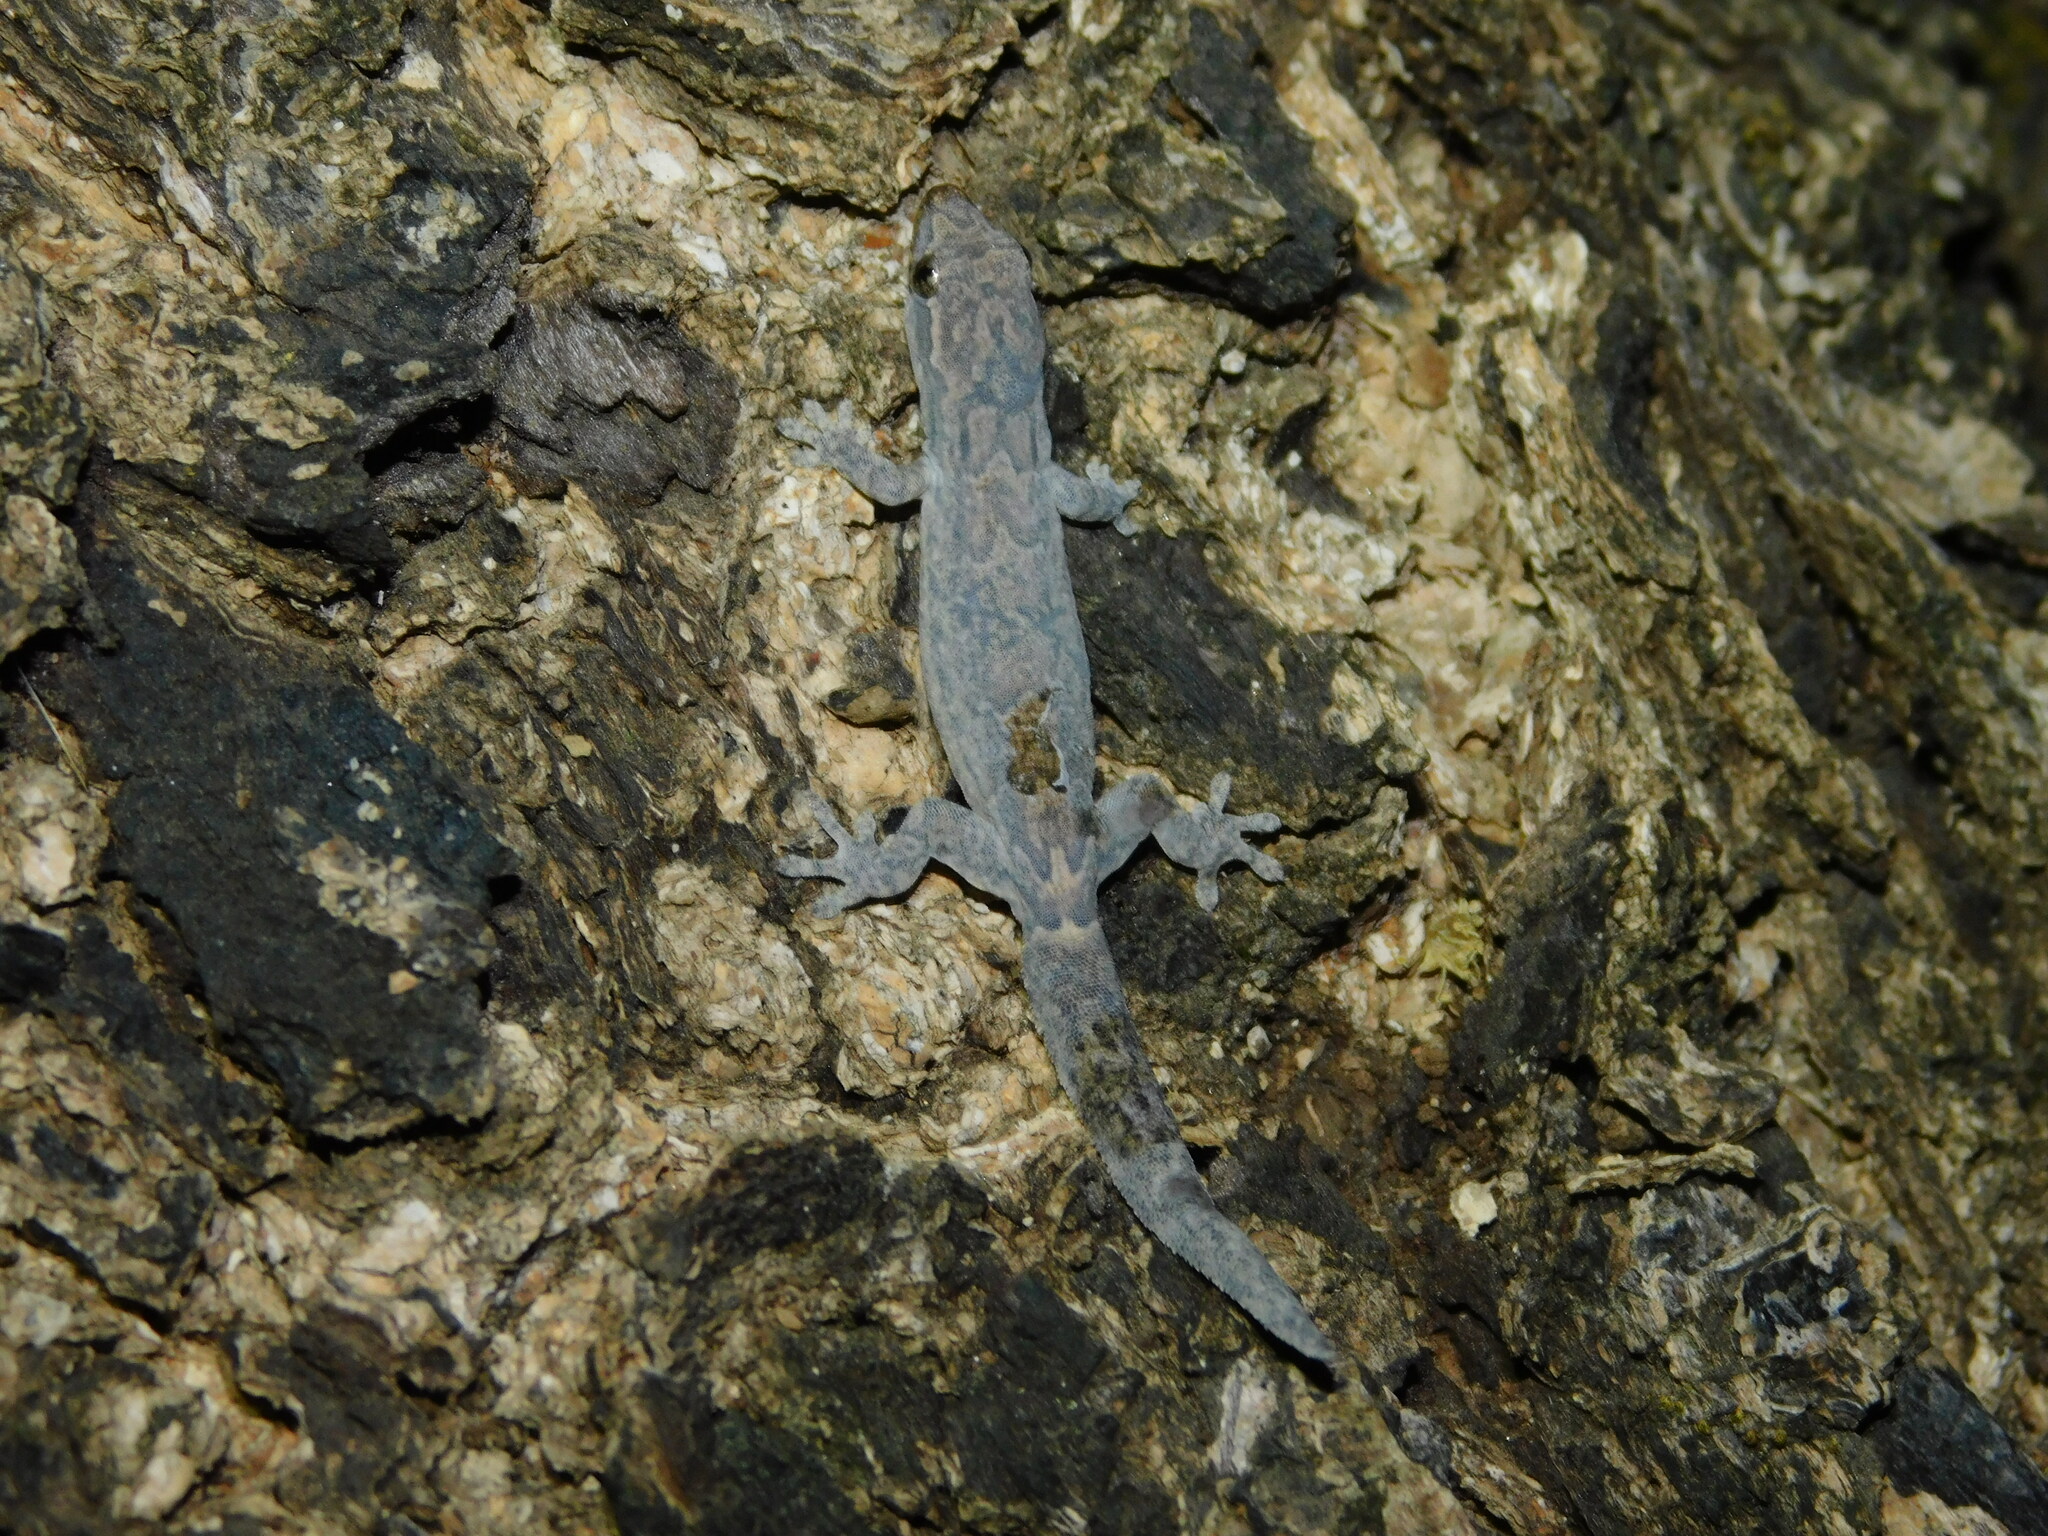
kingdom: Animalia
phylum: Chordata
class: Squamata
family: Gekkonidae
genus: Lepidodactylus
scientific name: Lepidodactylus lugubris
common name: Mourning gecko
